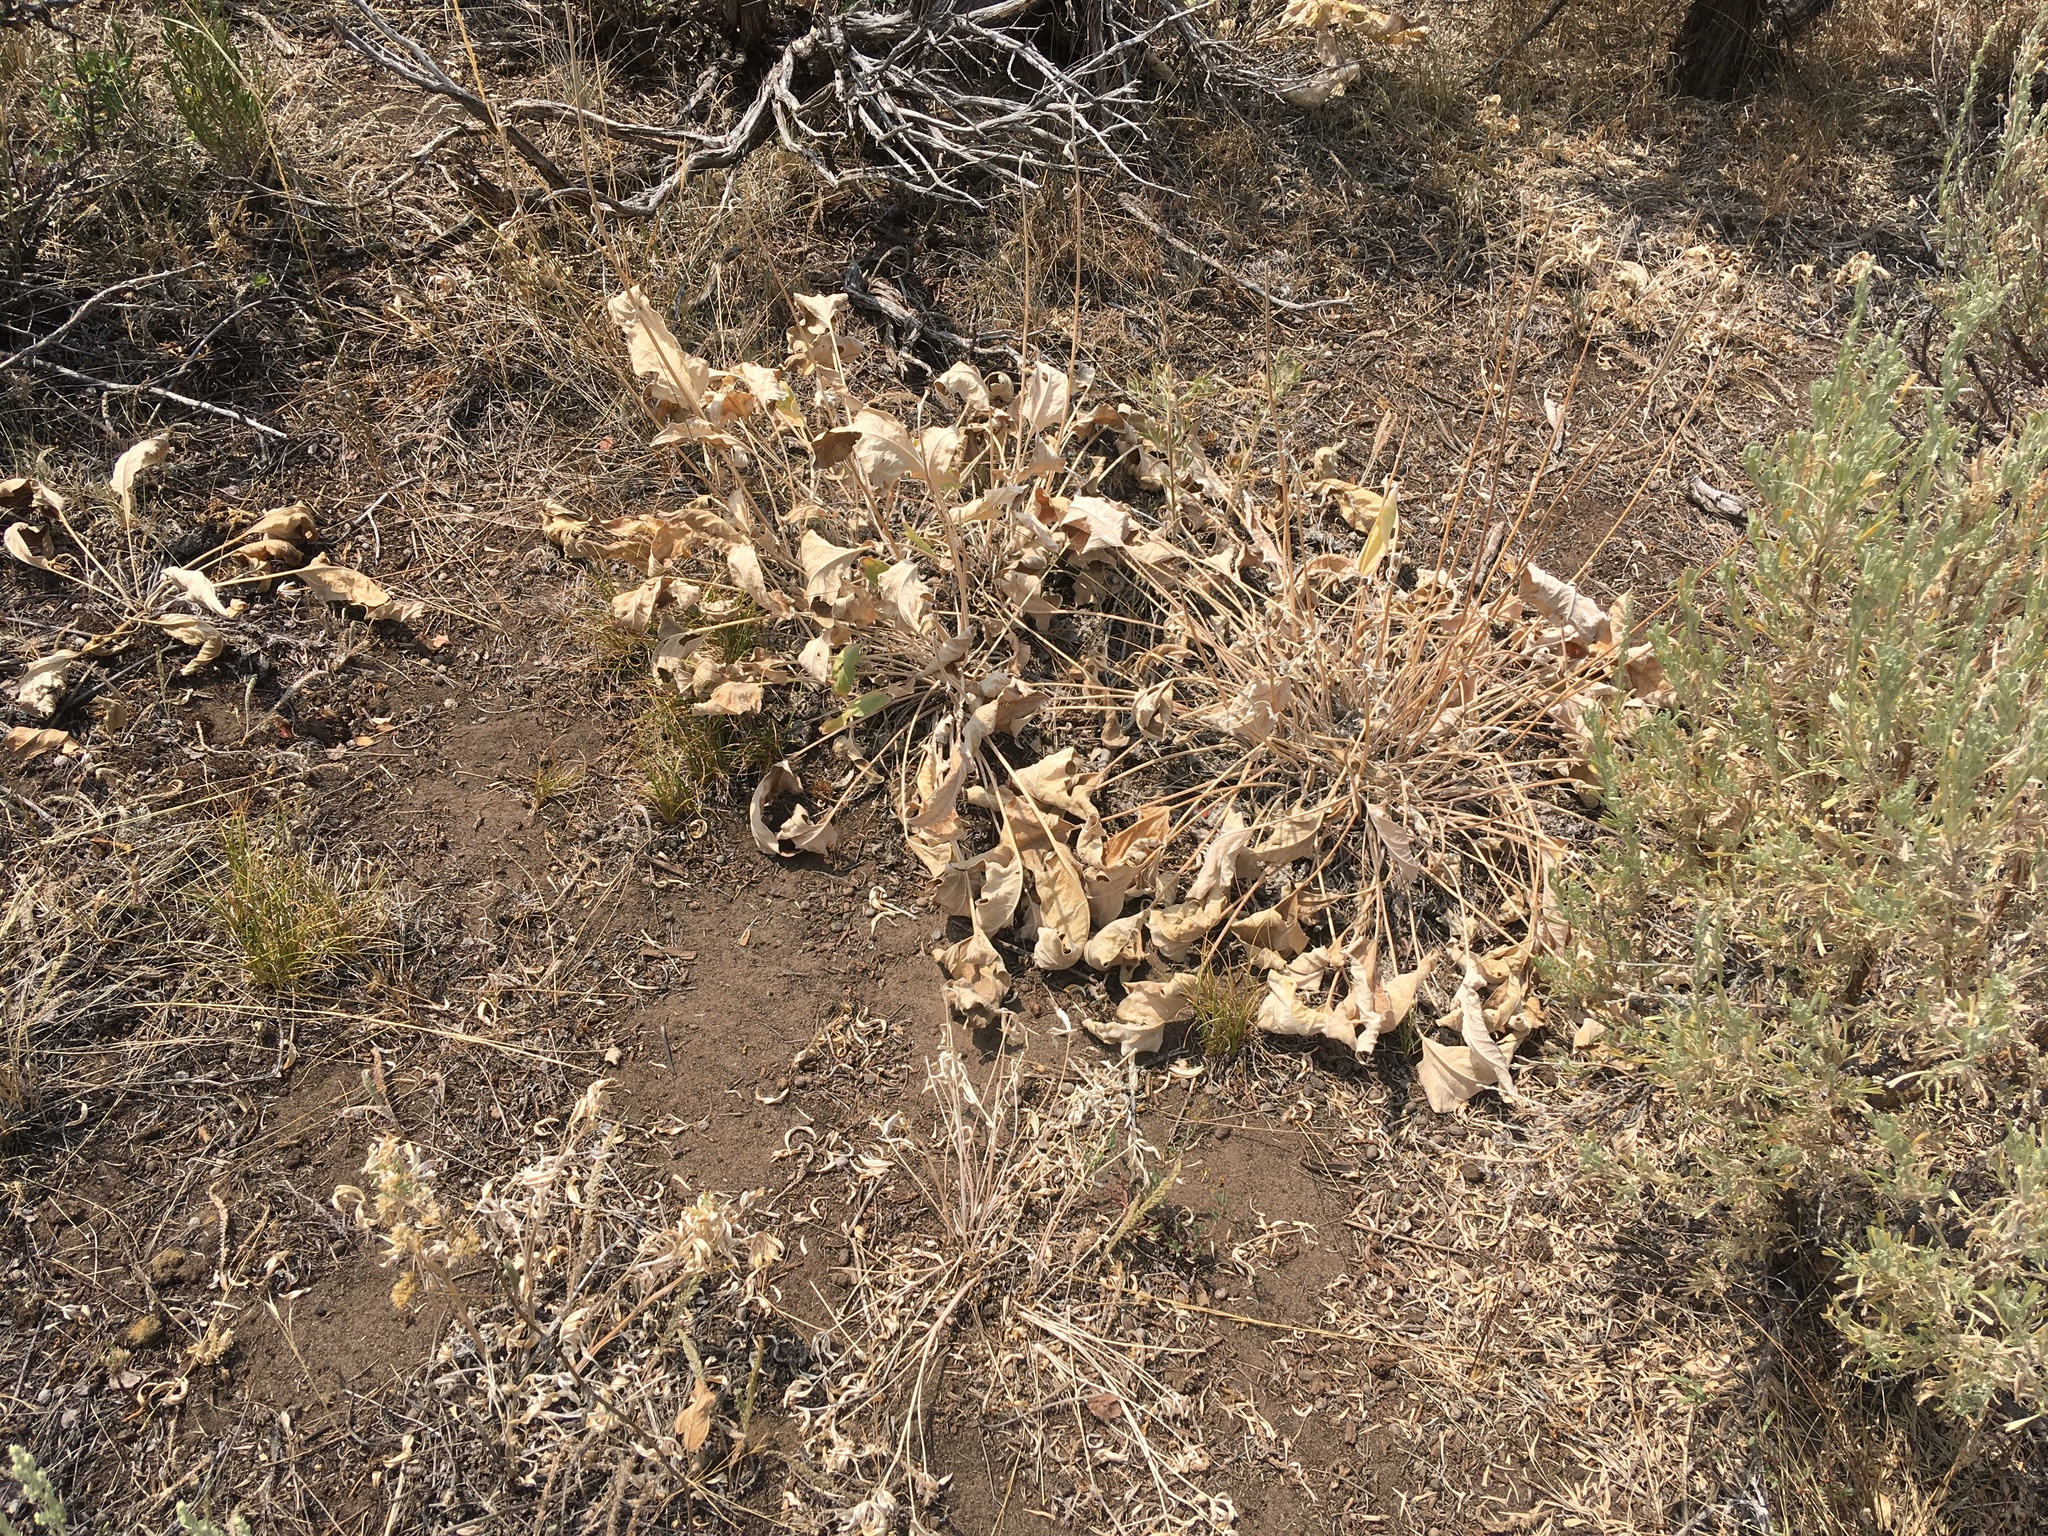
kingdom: Plantae
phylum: Tracheophyta
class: Magnoliopsida
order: Asterales
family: Asteraceae
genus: Wyethia
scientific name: Wyethia sagittata
